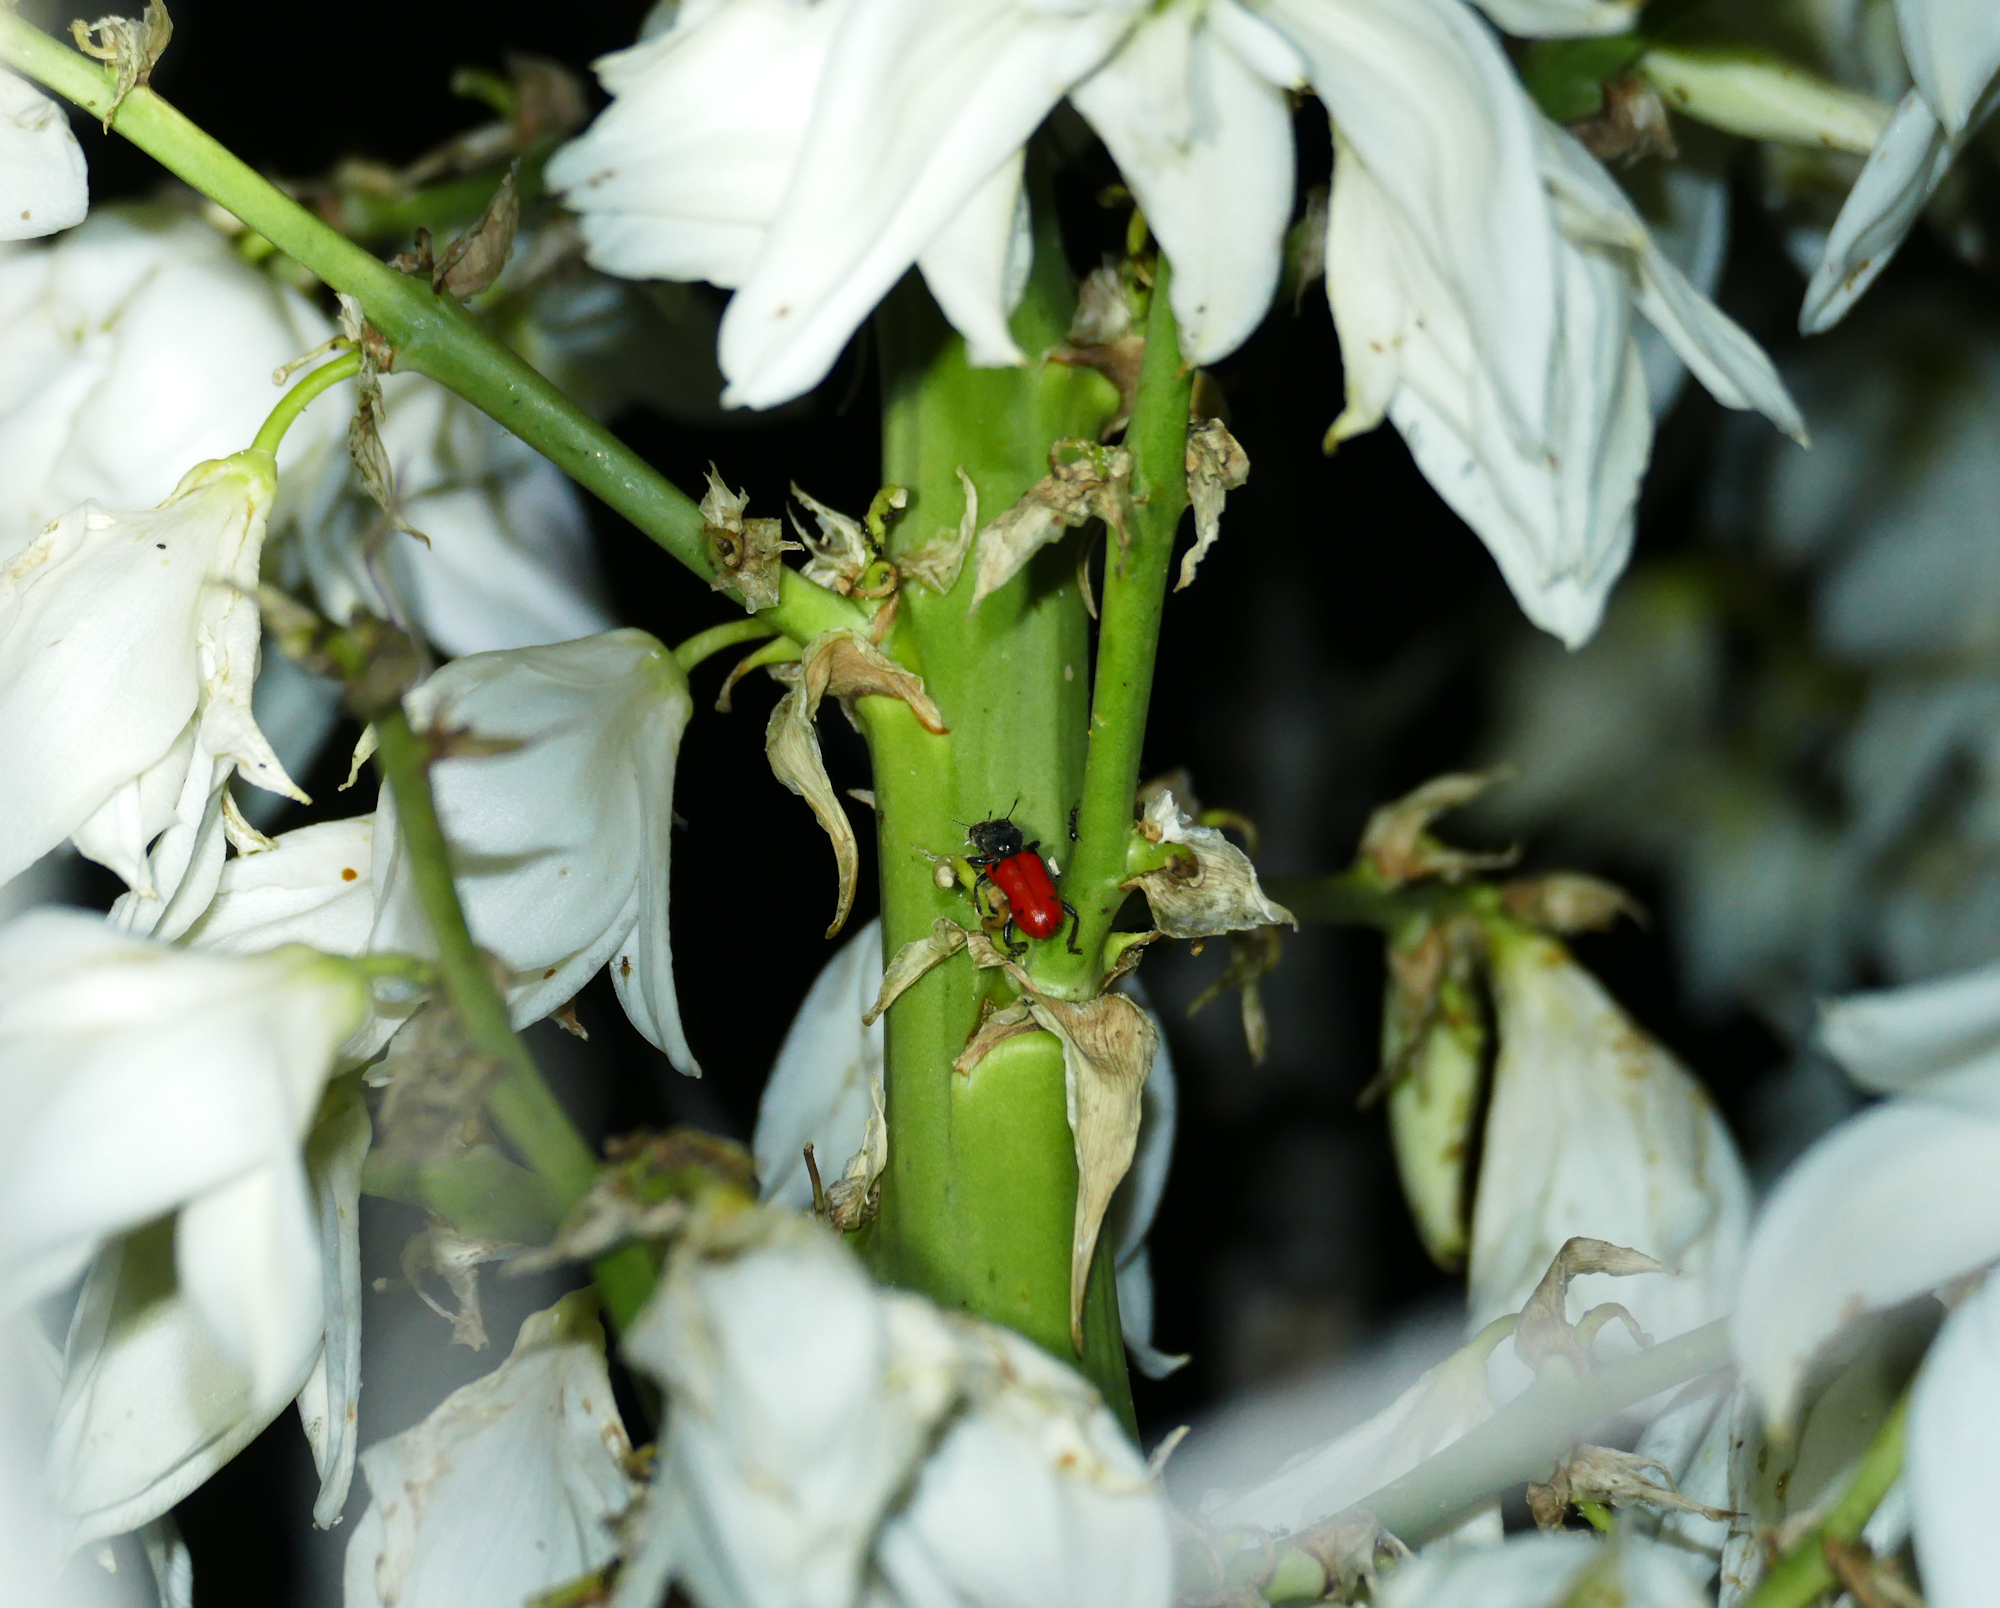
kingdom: Animalia
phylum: Arthropoda
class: Insecta
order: Coleoptera
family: Cleridae
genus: Enoclerus
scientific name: Enoclerus
